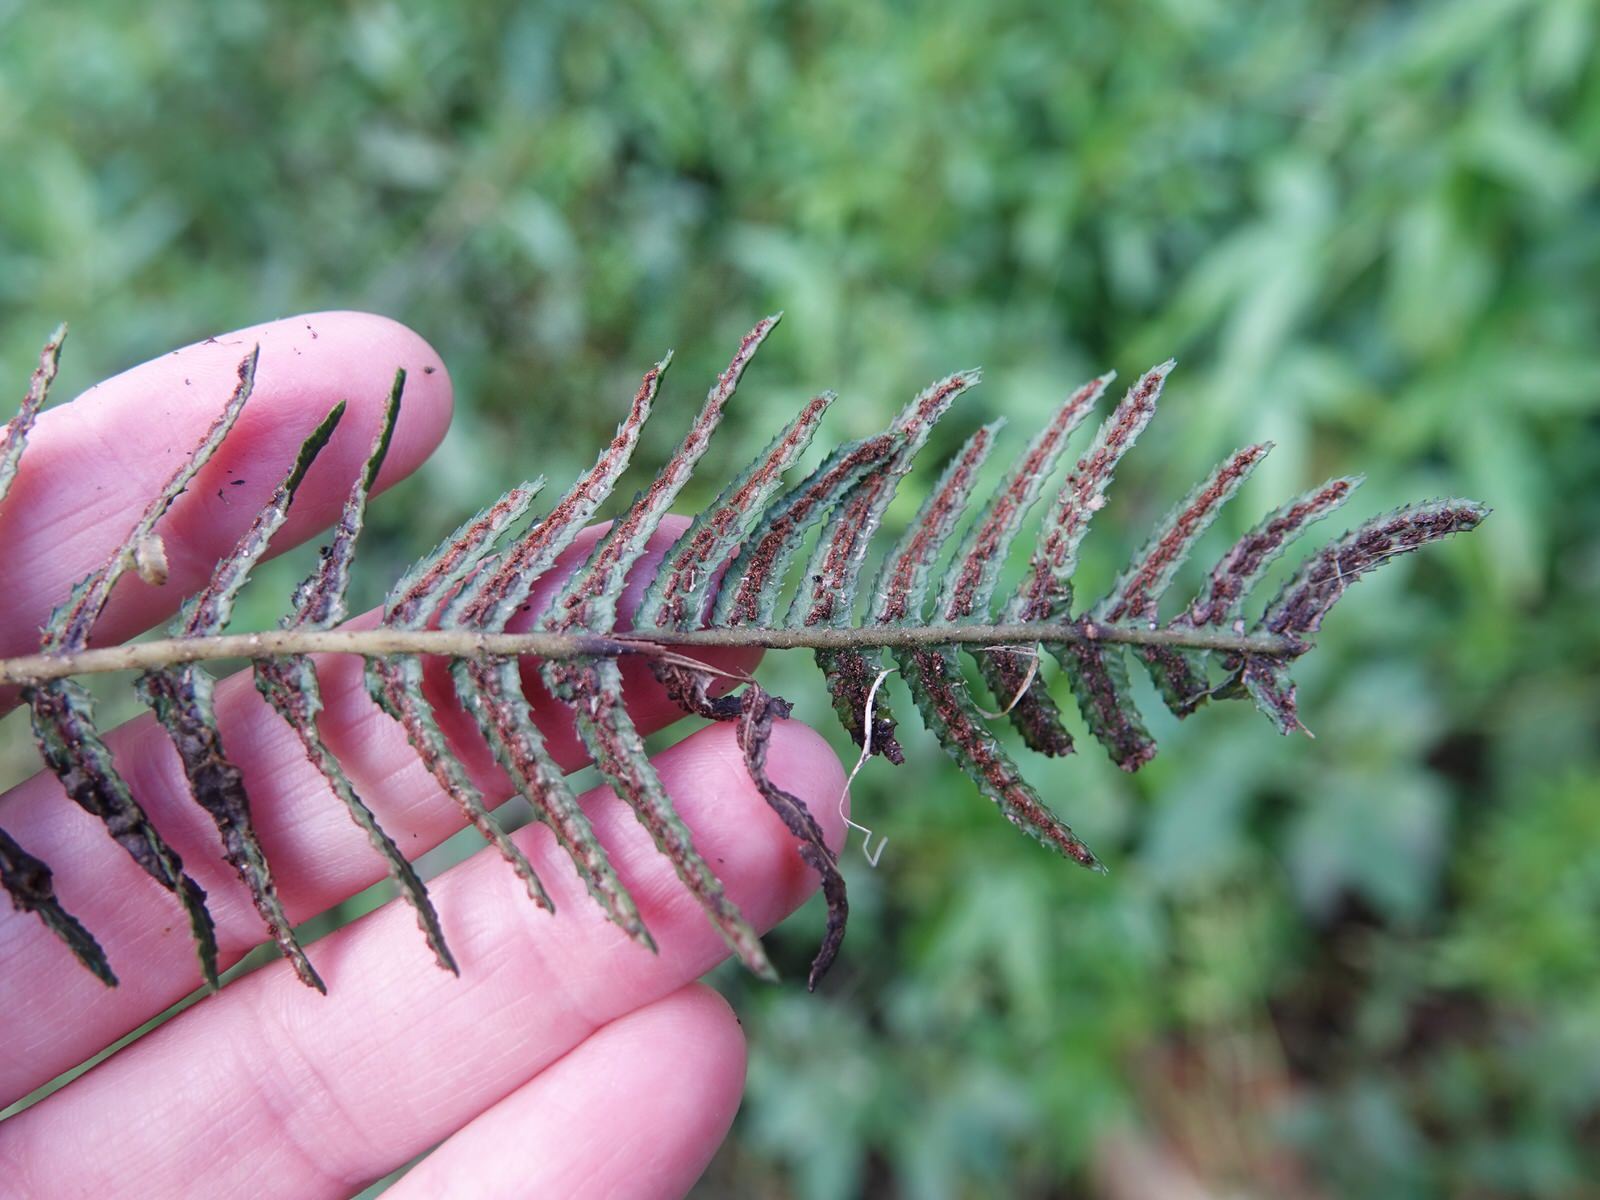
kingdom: Plantae
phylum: Tracheophyta
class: Polypodiopsida
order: Polypodiales
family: Blechnaceae
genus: Doodia
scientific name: Doodia australis
